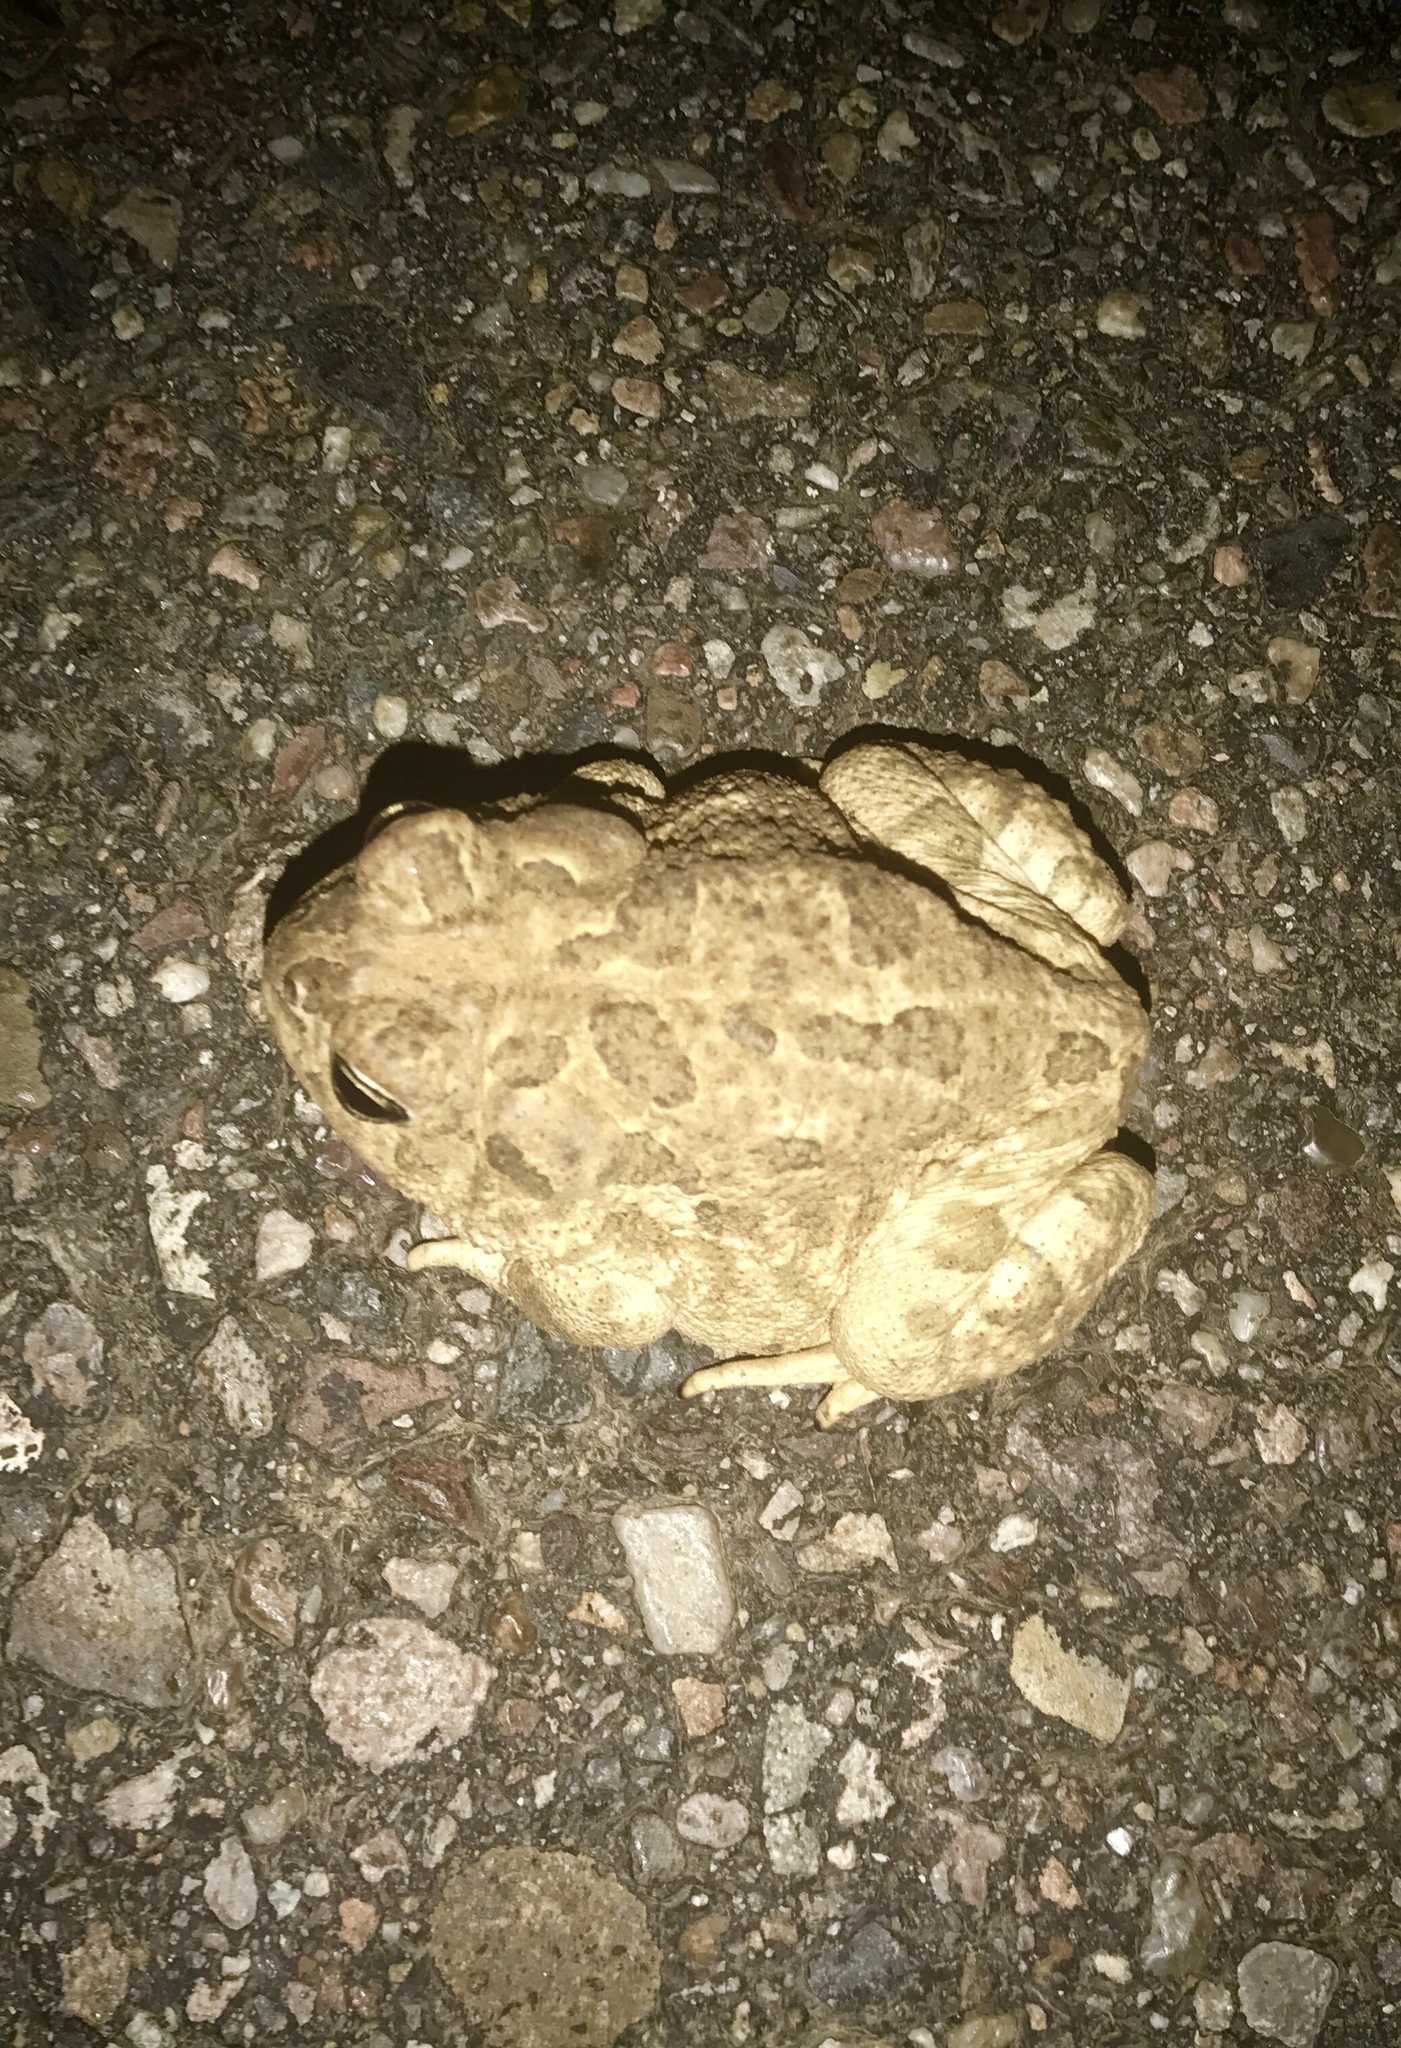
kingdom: Animalia
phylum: Chordata
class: Amphibia
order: Anura
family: Bufonidae
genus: Anaxyrus
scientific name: Anaxyrus cognatus
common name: Great plains toad
